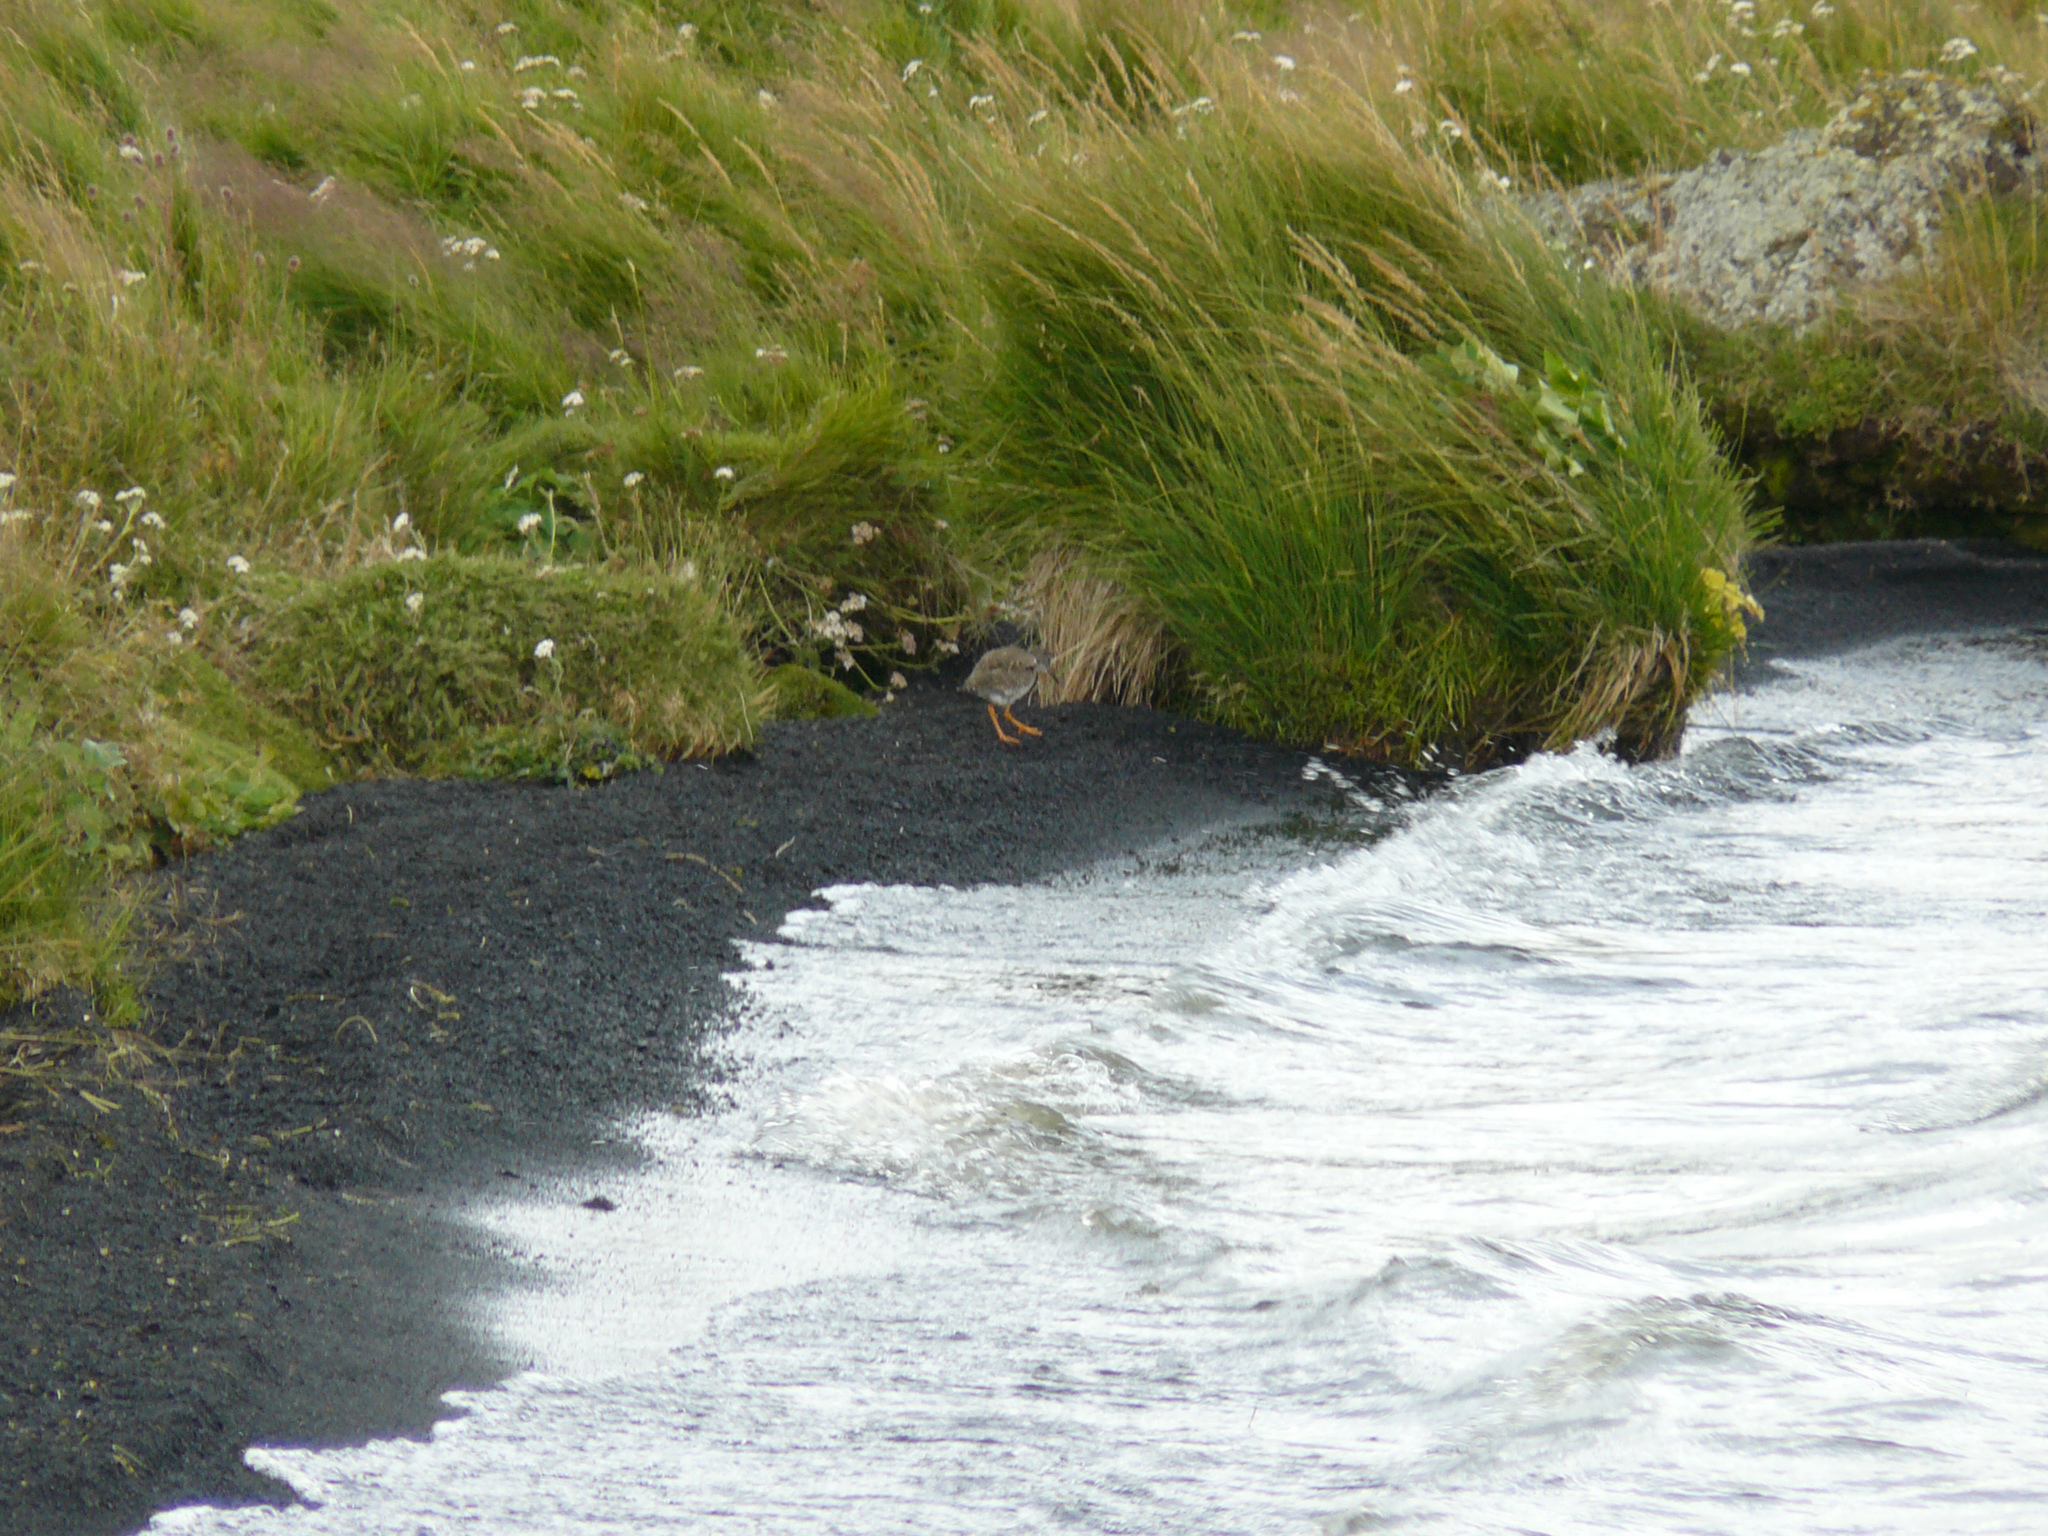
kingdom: Animalia
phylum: Chordata
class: Aves
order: Charadriiformes
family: Scolopacidae
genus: Tringa
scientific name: Tringa totanus
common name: Common redshank
